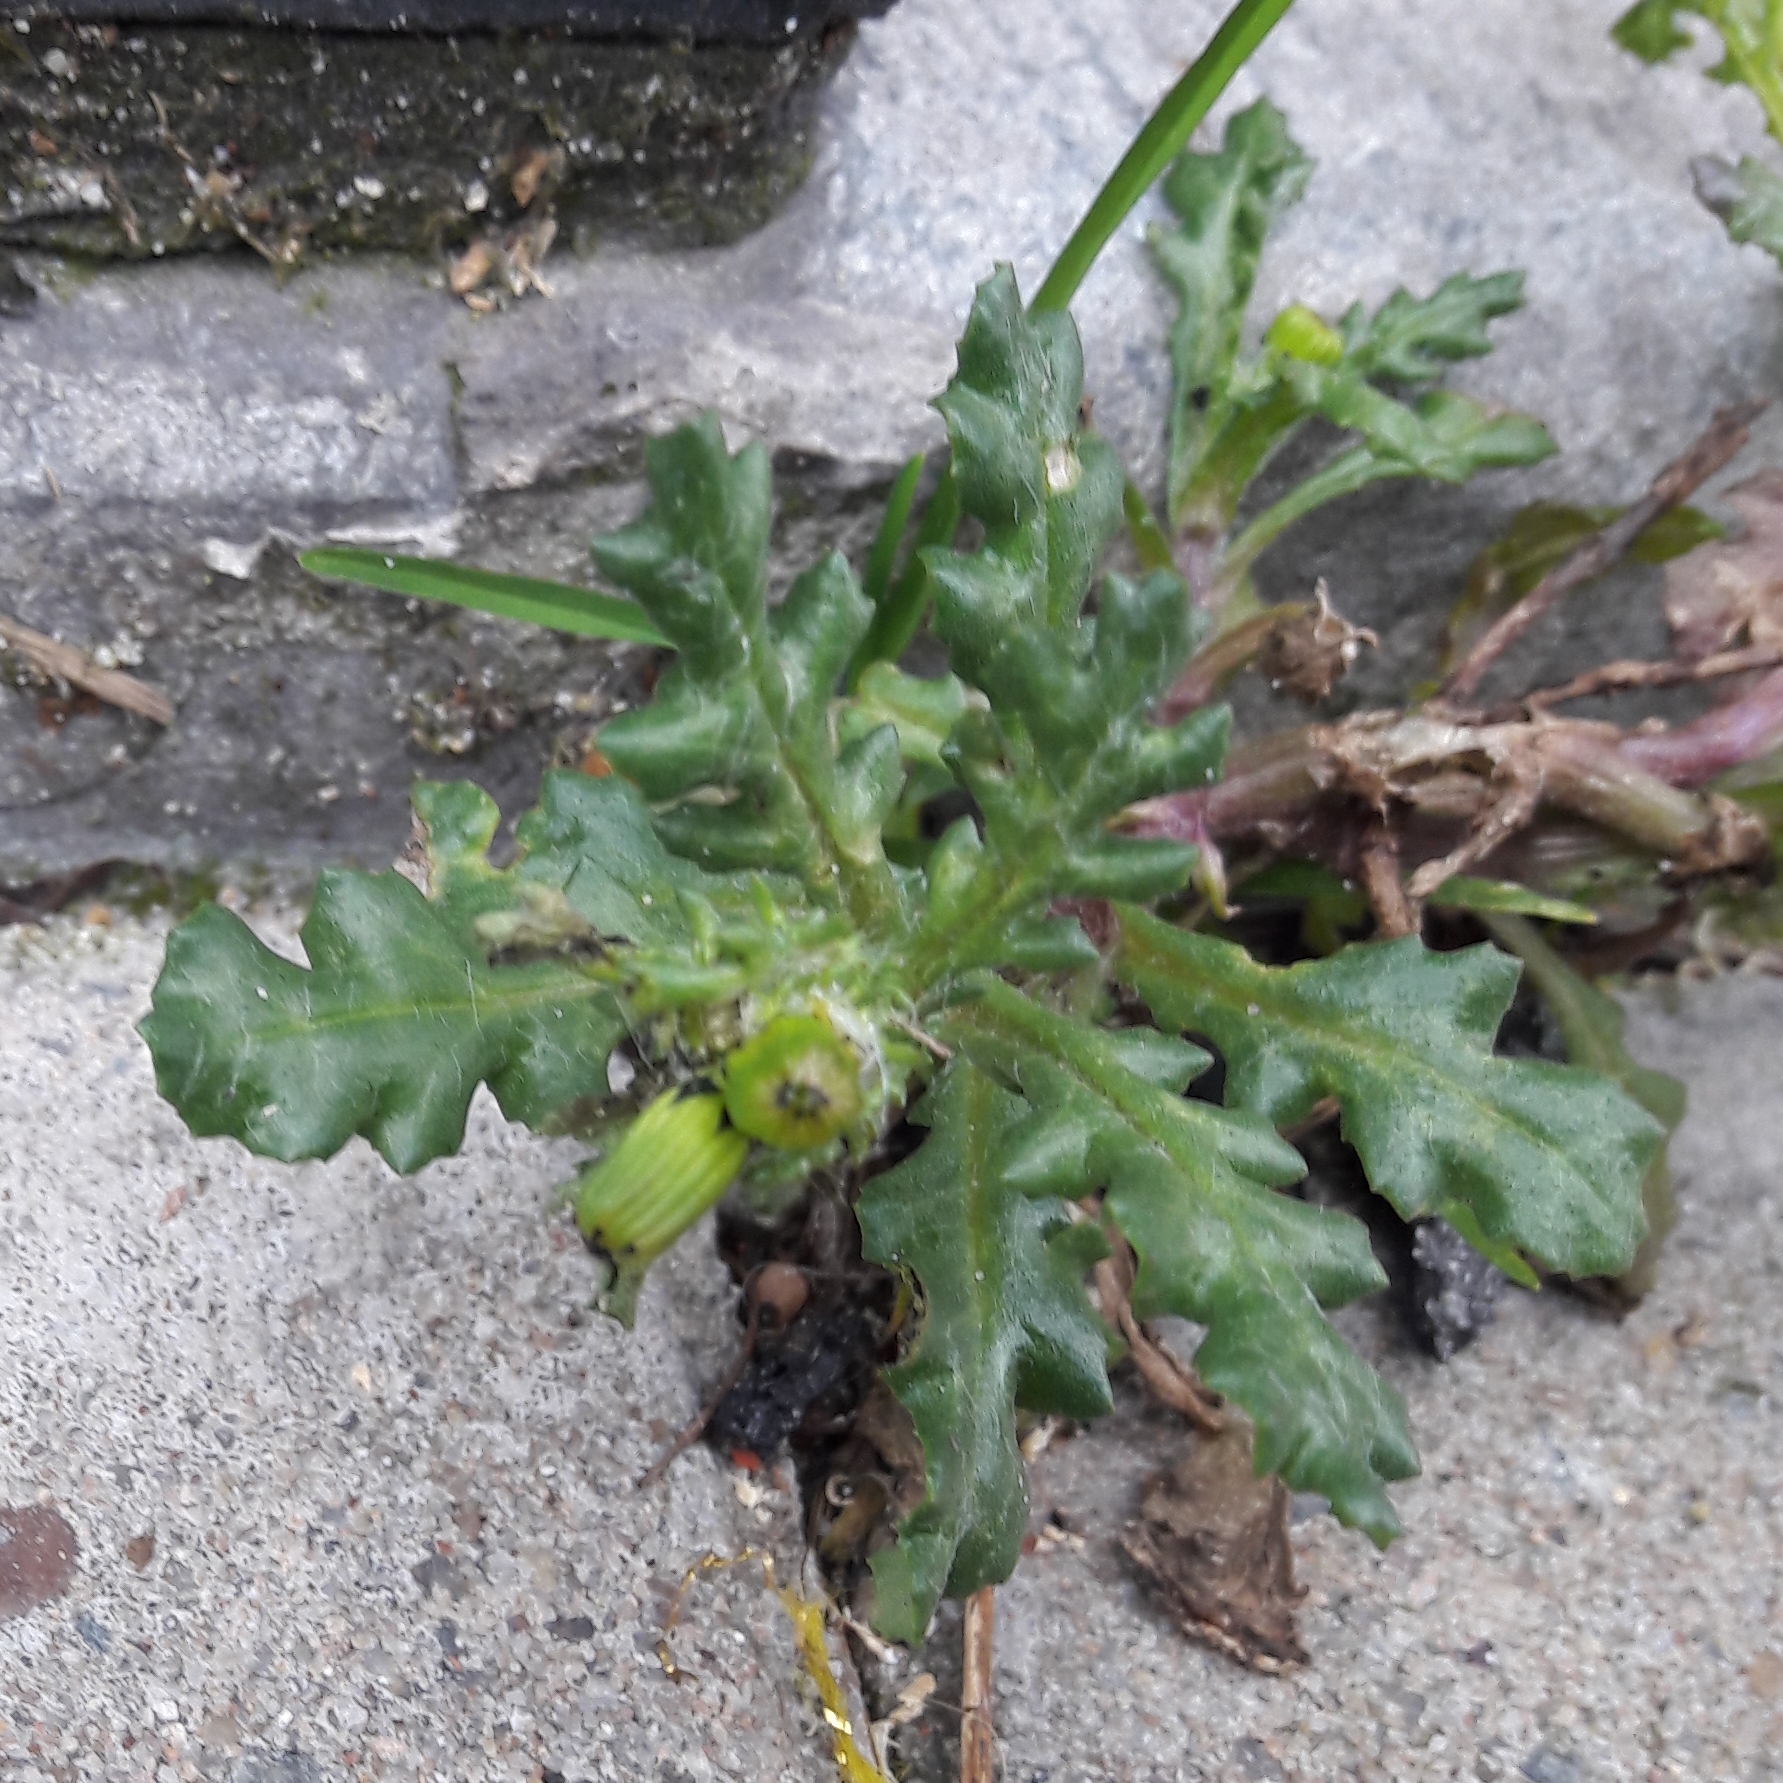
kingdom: Plantae
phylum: Tracheophyta
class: Magnoliopsida
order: Asterales
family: Asteraceae
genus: Senecio
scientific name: Senecio vulgaris
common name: Old-man-in-the-spring
